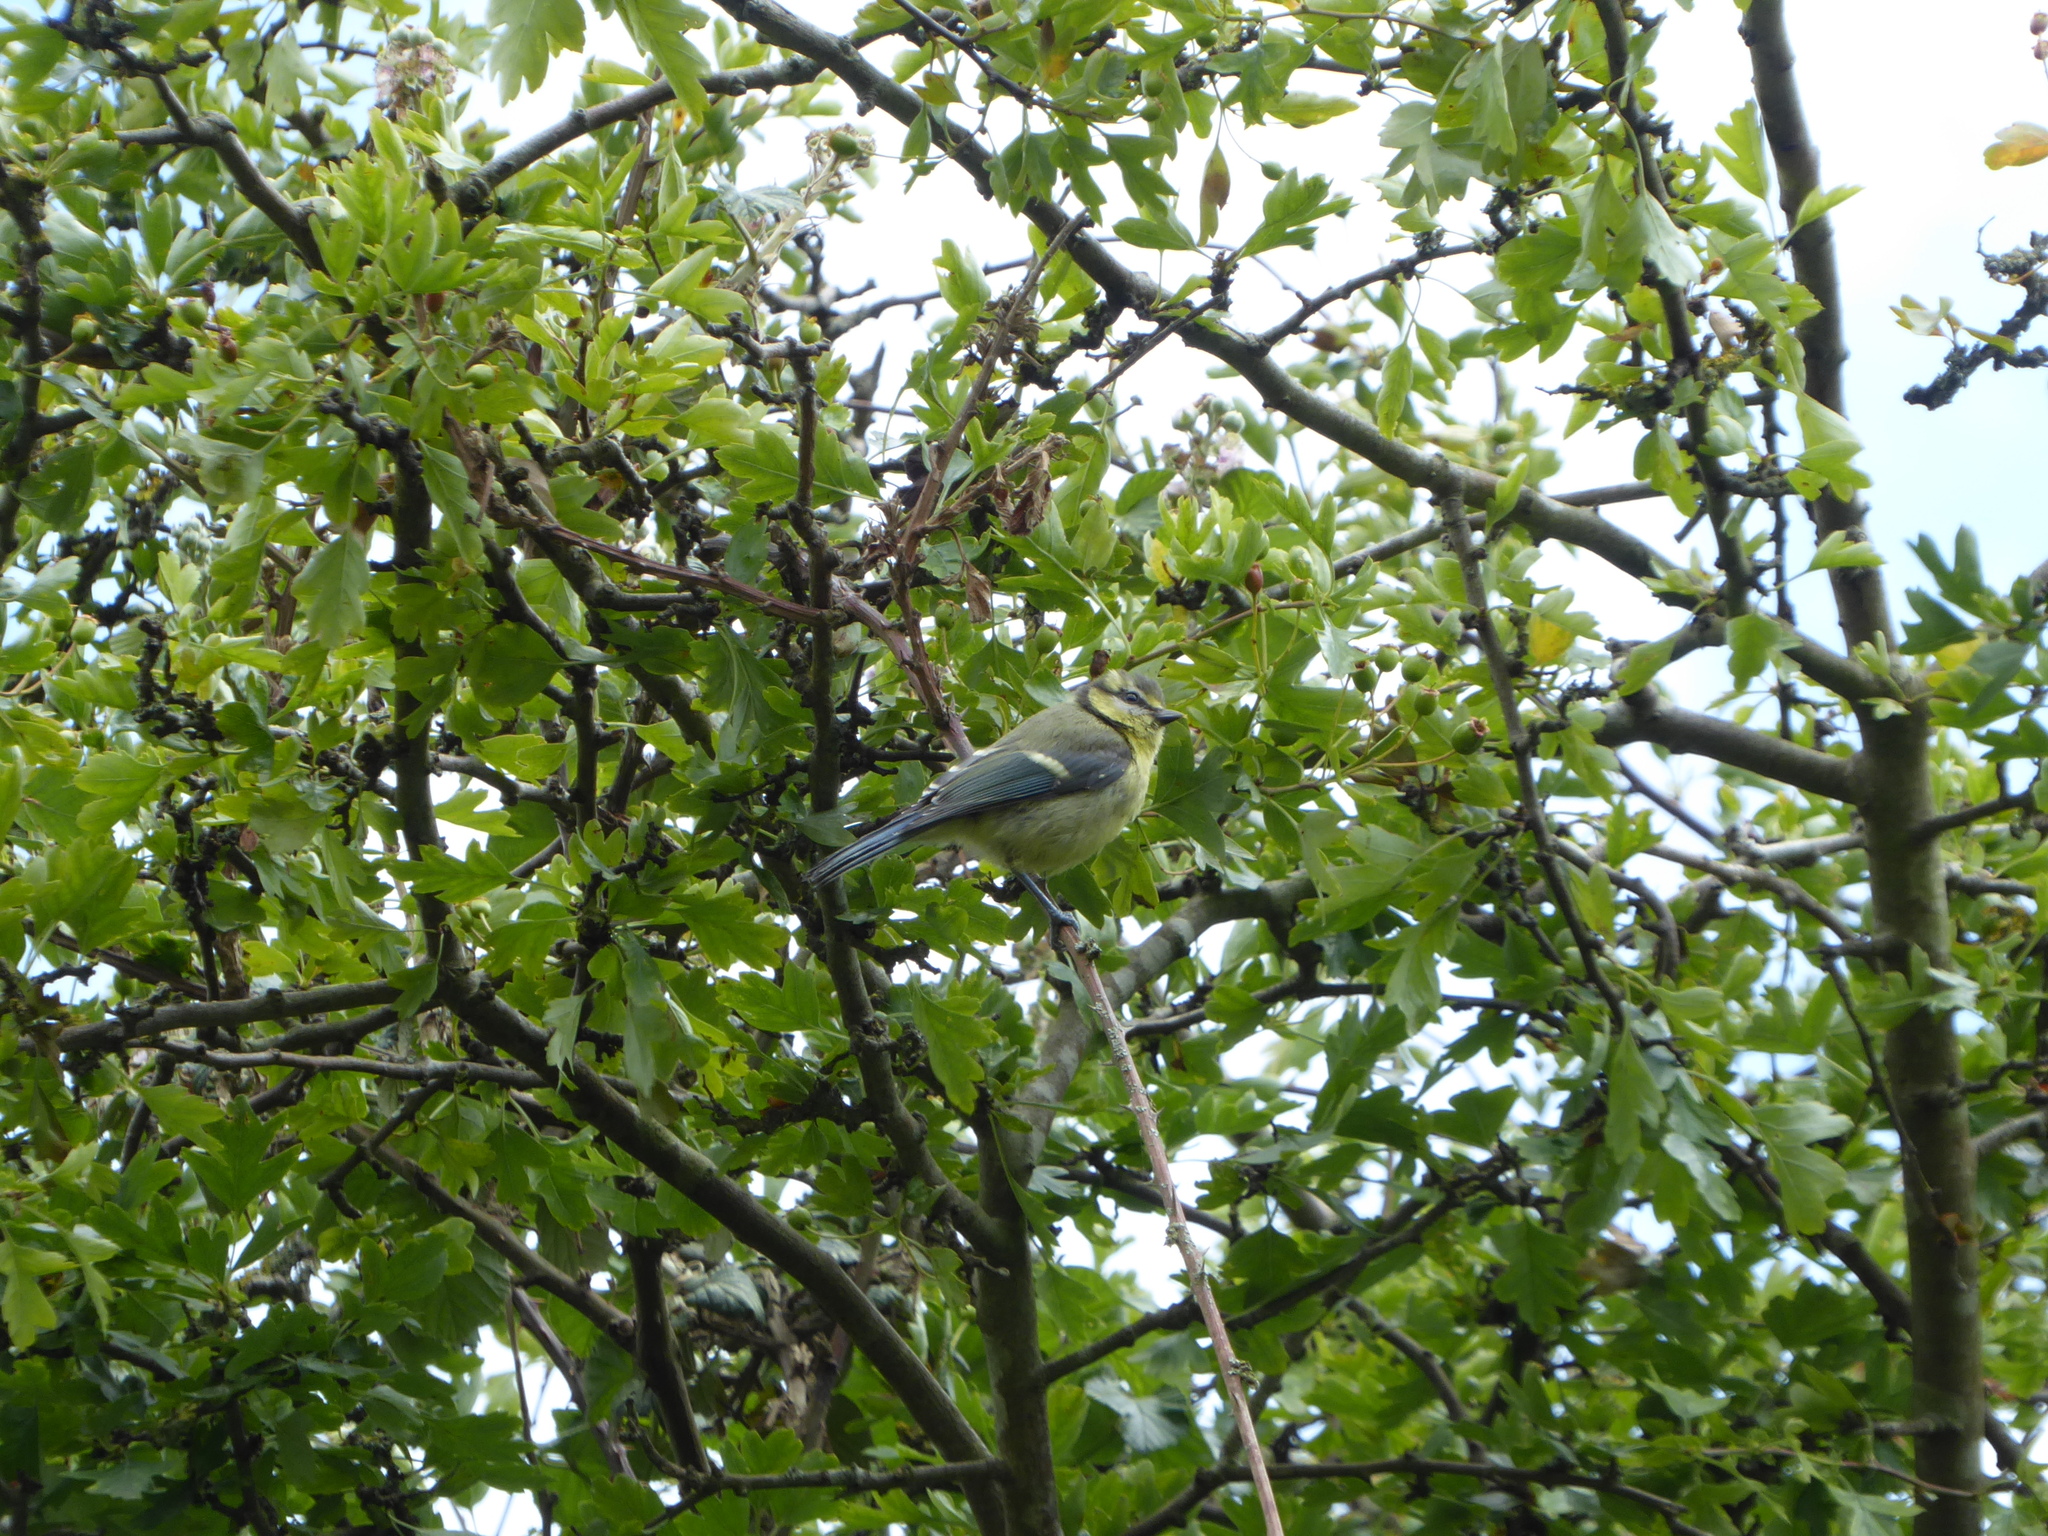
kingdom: Animalia
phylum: Chordata
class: Aves
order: Passeriformes
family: Paridae
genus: Cyanistes
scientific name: Cyanistes caeruleus
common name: Eurasian blue tit
